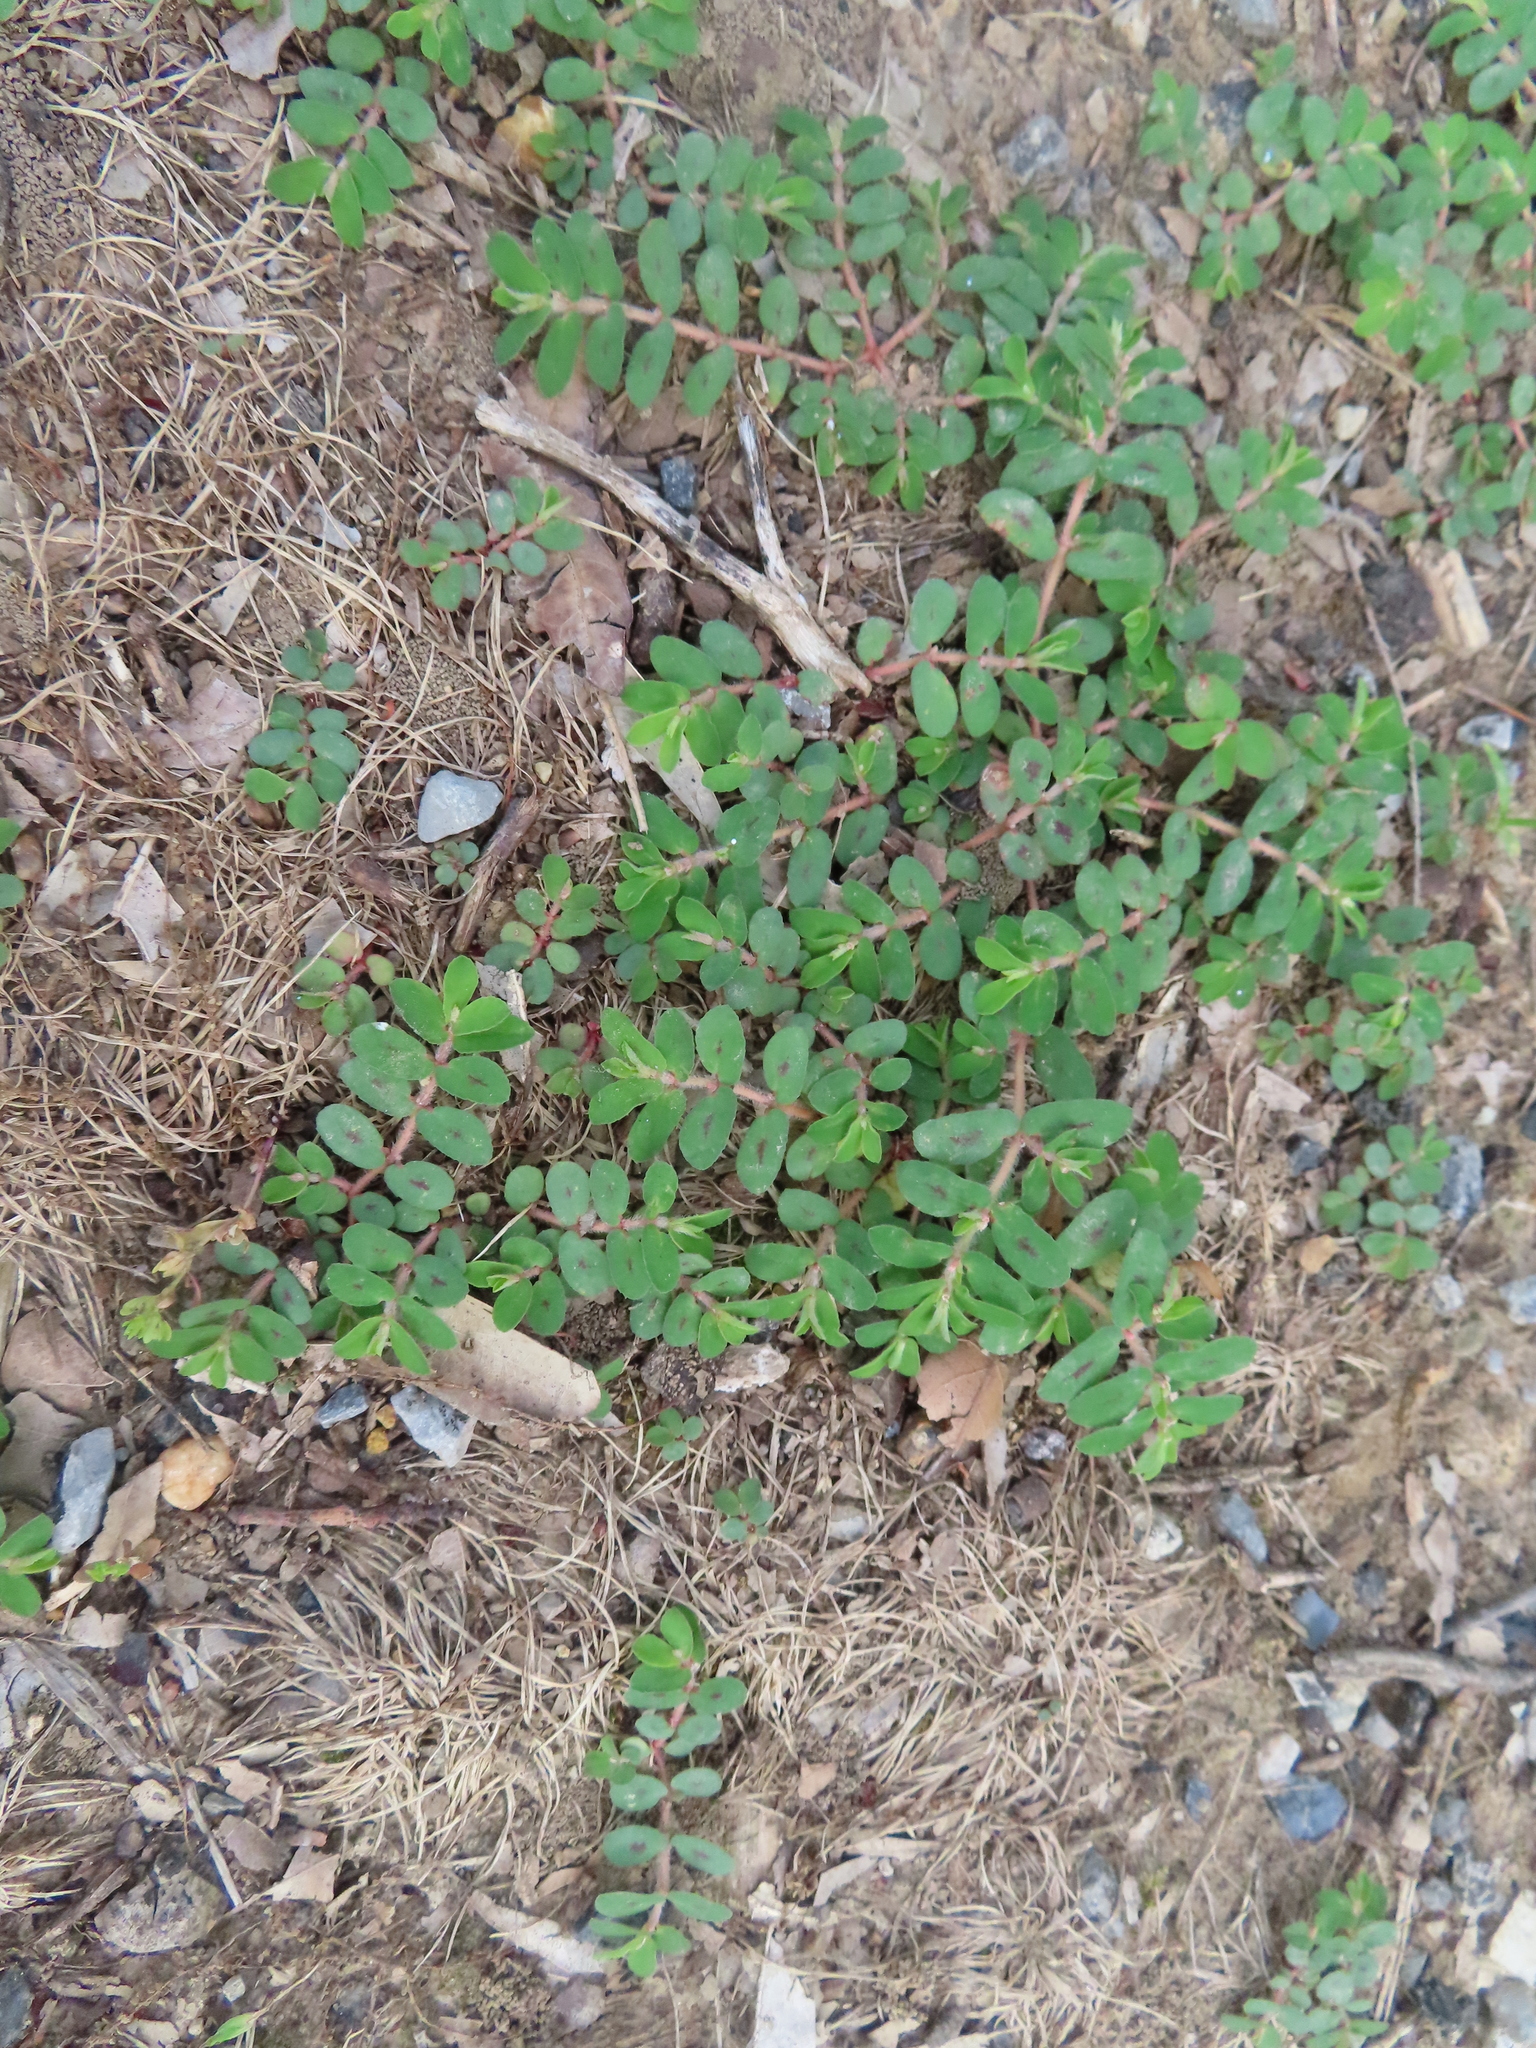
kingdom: Plantae
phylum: Tracheophyta
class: Magnoliopsida
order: Malpighiales
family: Euphorbiaceae
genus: Euphorbia
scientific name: Euphorbia maculata
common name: Spotted spurge
